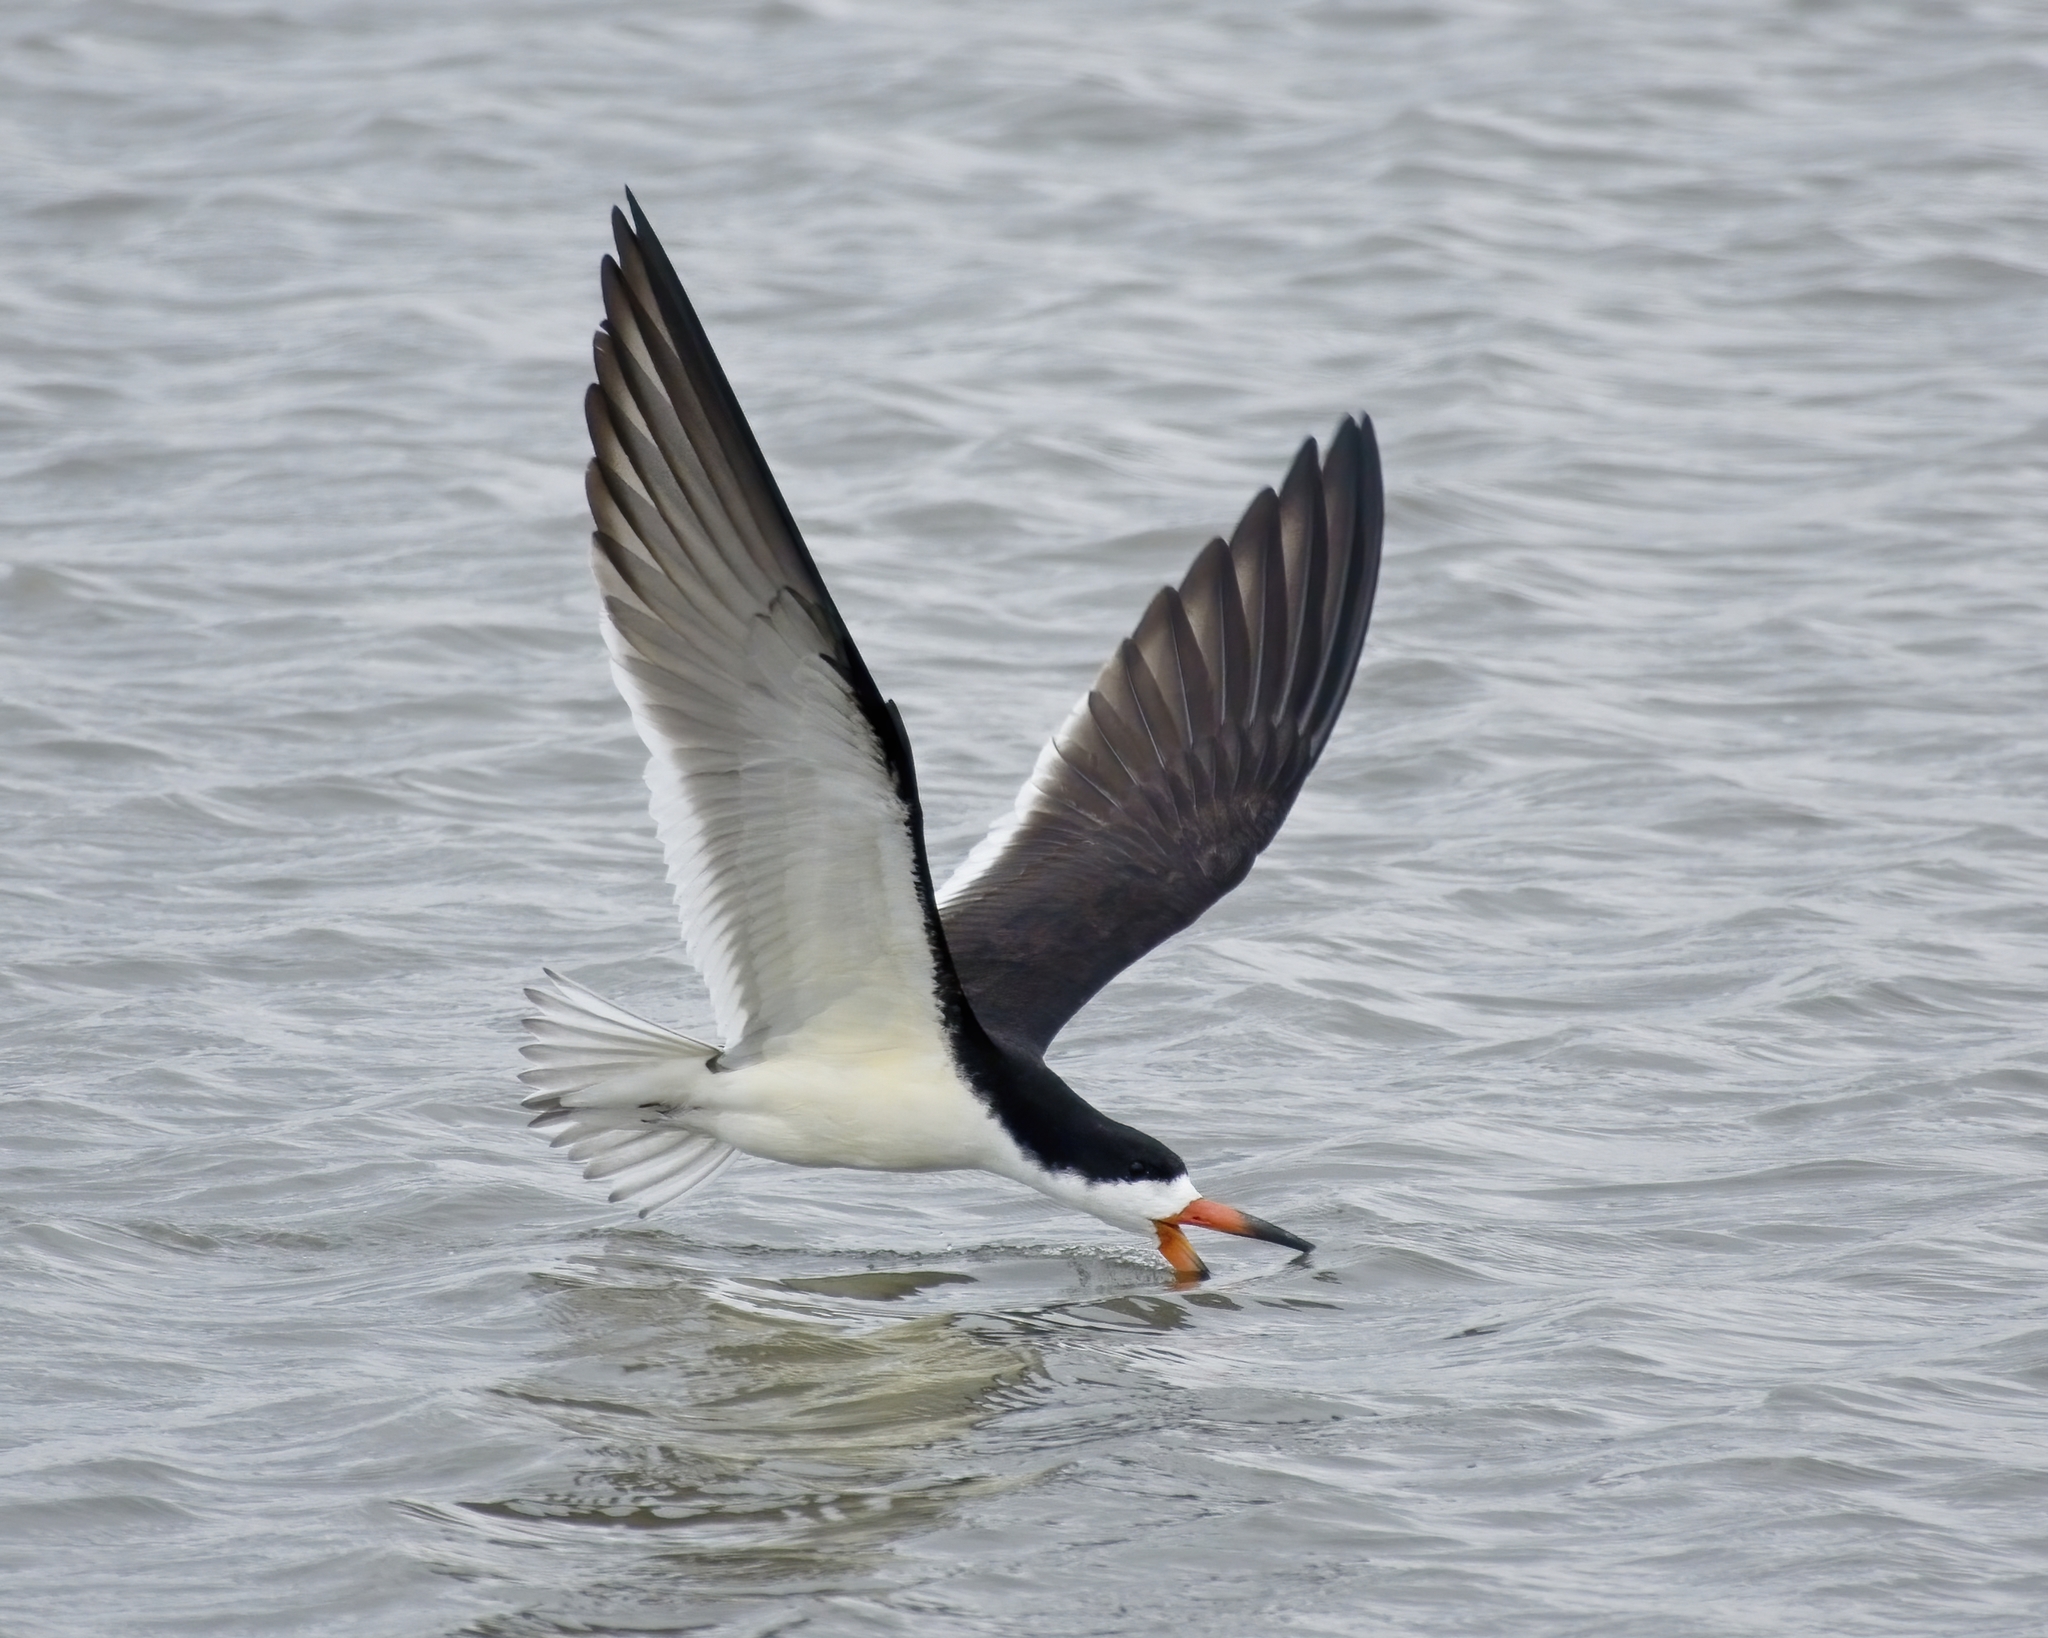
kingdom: Animalia
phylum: Chordata
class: Aves
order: Charadriiformes
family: Laridae
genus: Rynchops
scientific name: Rynchops niger
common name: Black skimmer
